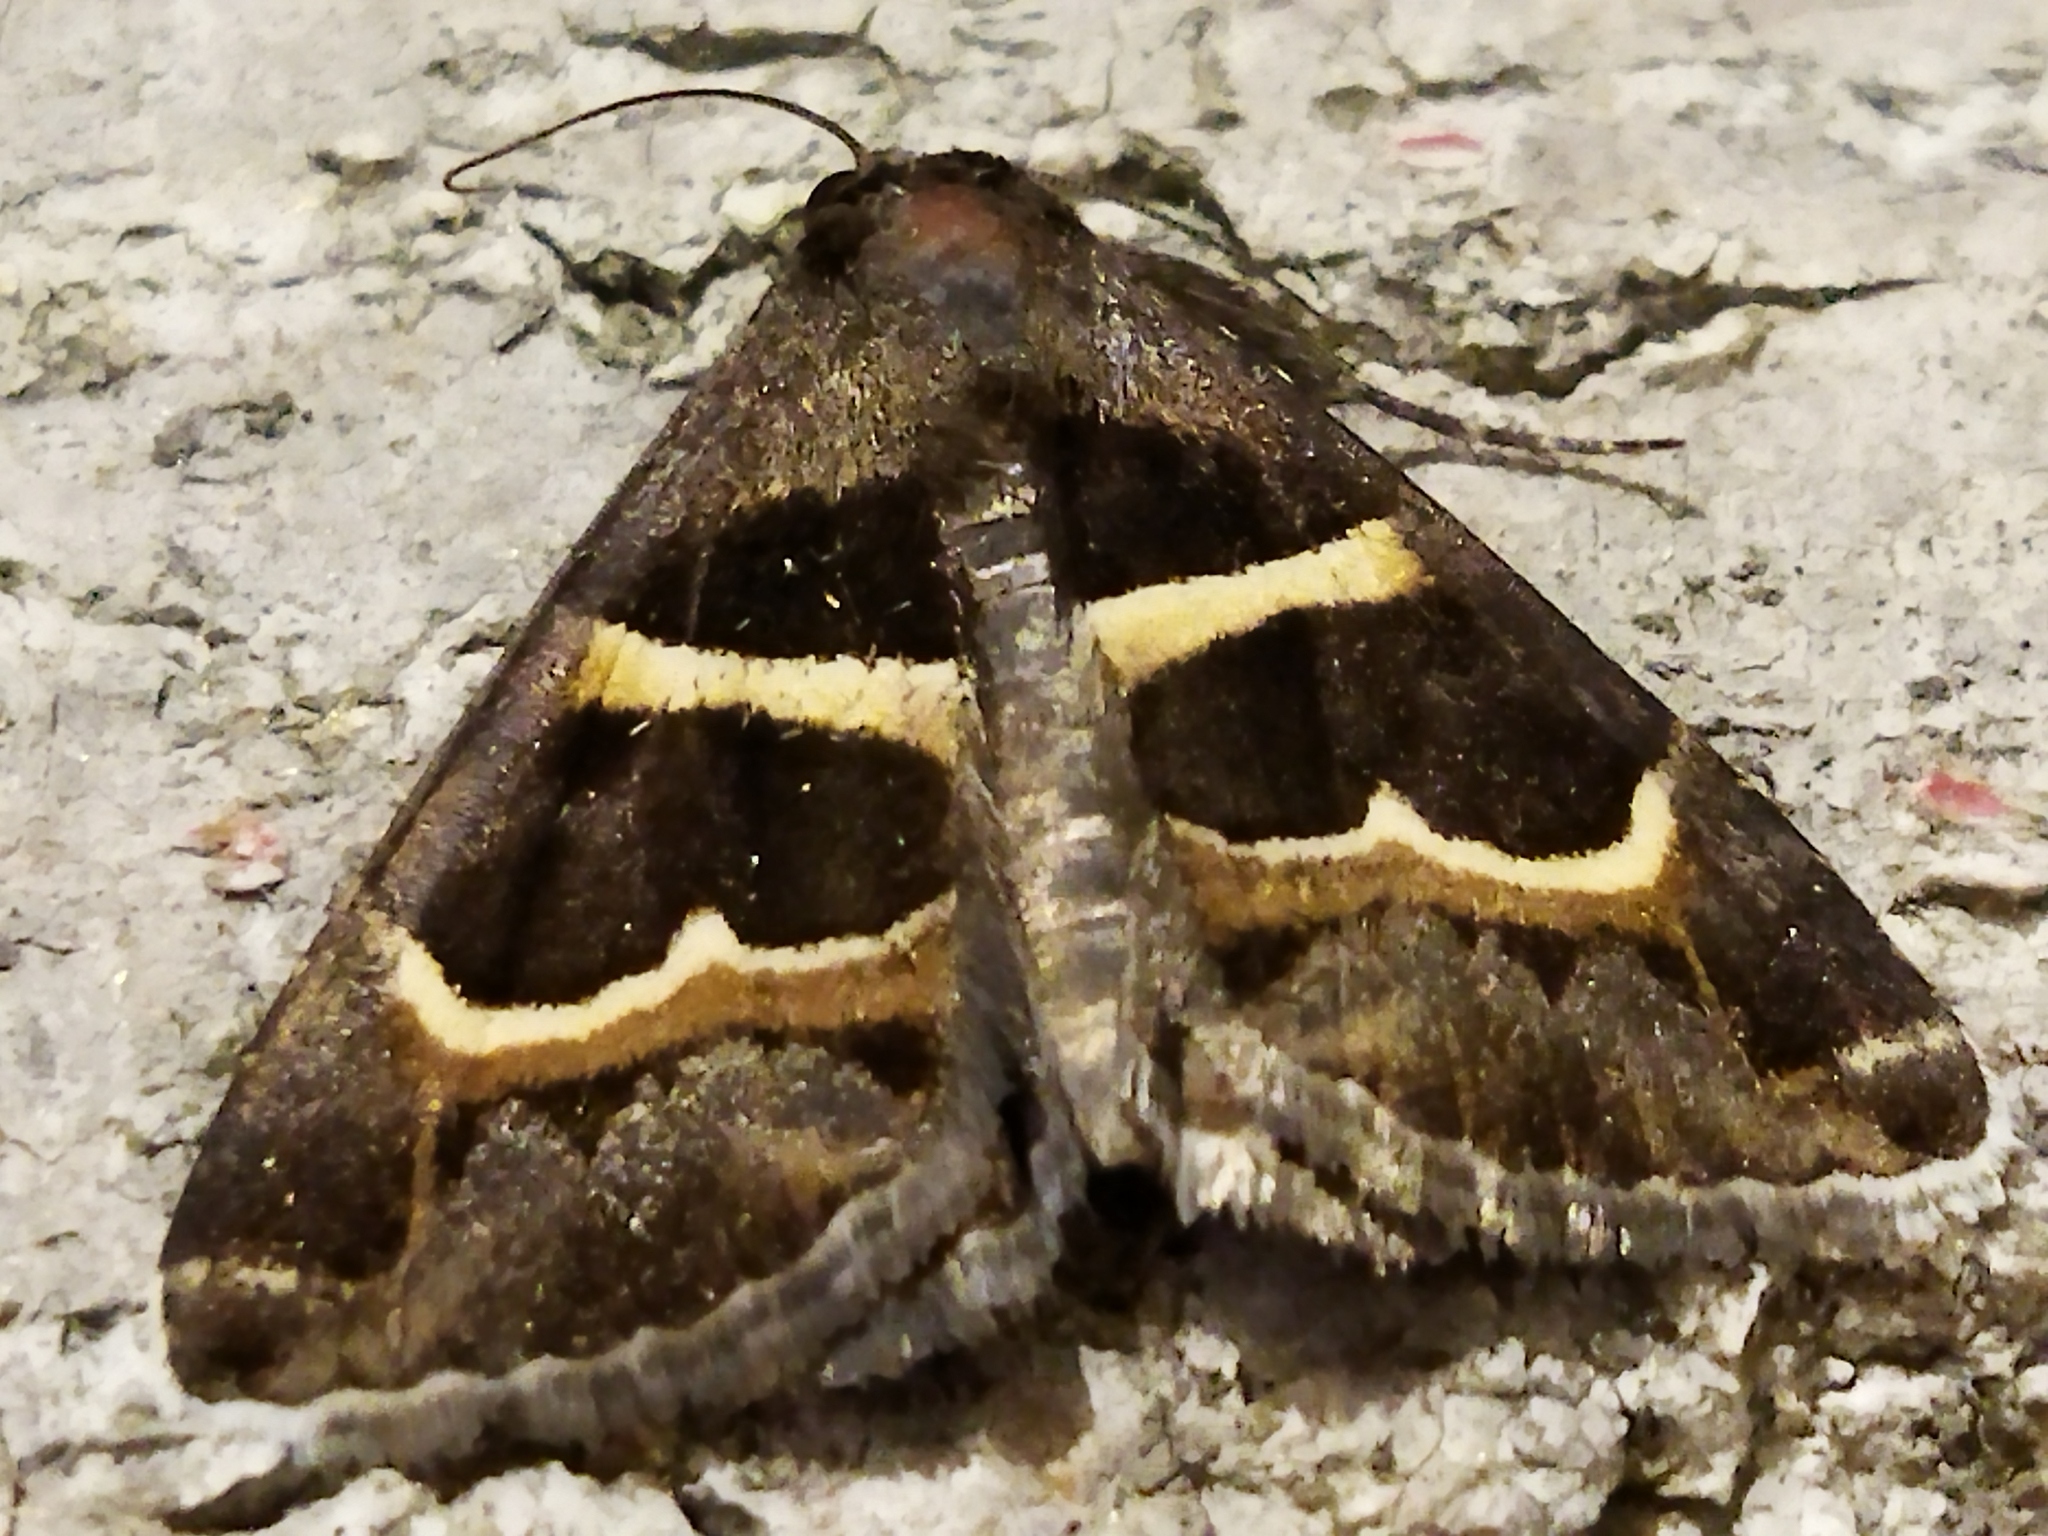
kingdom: Animalia
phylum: Arthropoda
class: Insecta
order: Lepidoptera
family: Erebidae
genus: Grammodes
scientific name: Grammodes stolida
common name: Geometrician
